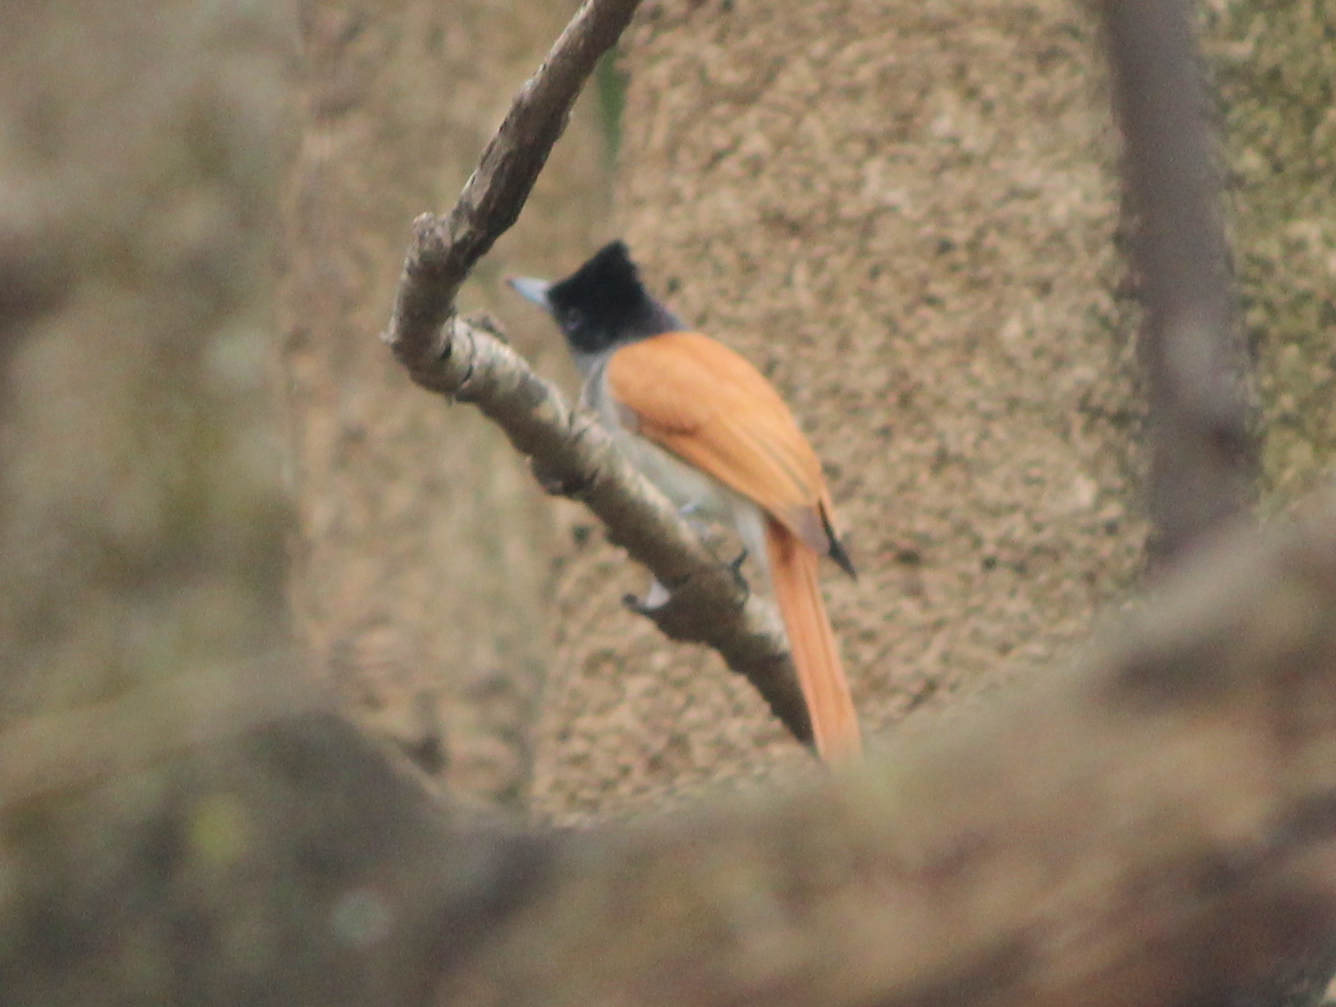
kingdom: Animalia
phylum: Chordata
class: Aves
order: Passeriformes
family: Monarchidae
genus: Terpsiphone
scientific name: Terpsiphone paradisi
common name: Indian paradise flycatcher
